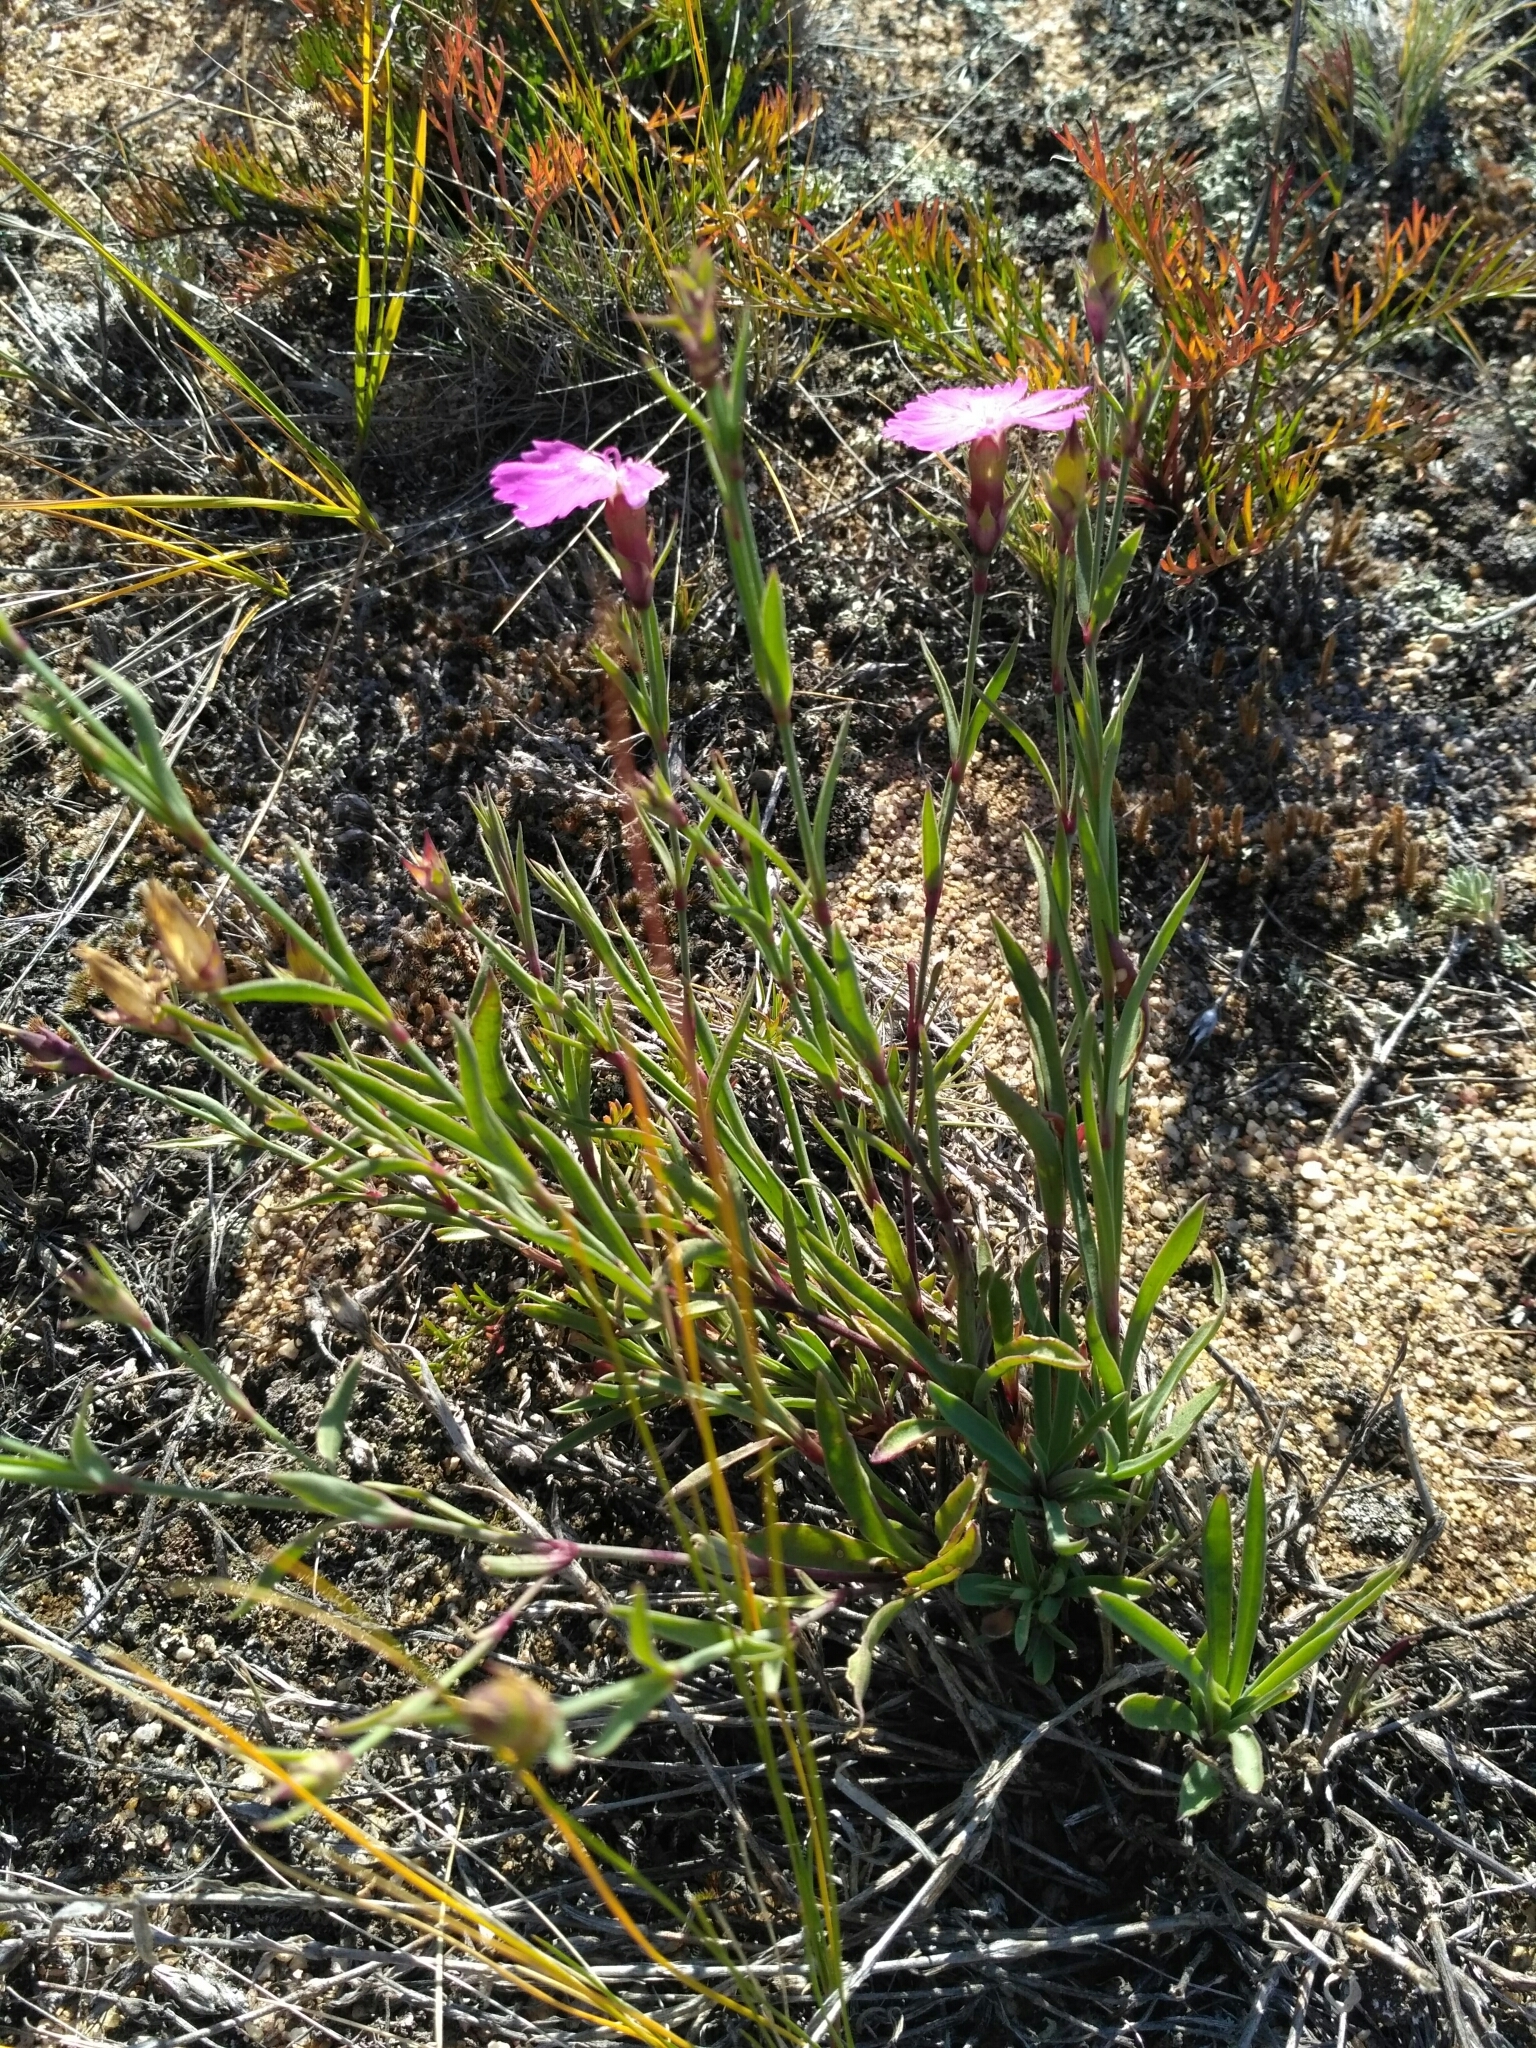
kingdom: Plantae
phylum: Tracheophyta
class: Magnoliopsida
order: Caryophyllales
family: Caryophyllaceae
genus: Dianthus
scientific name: Dianthus chinensis
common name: Rainbow pink
